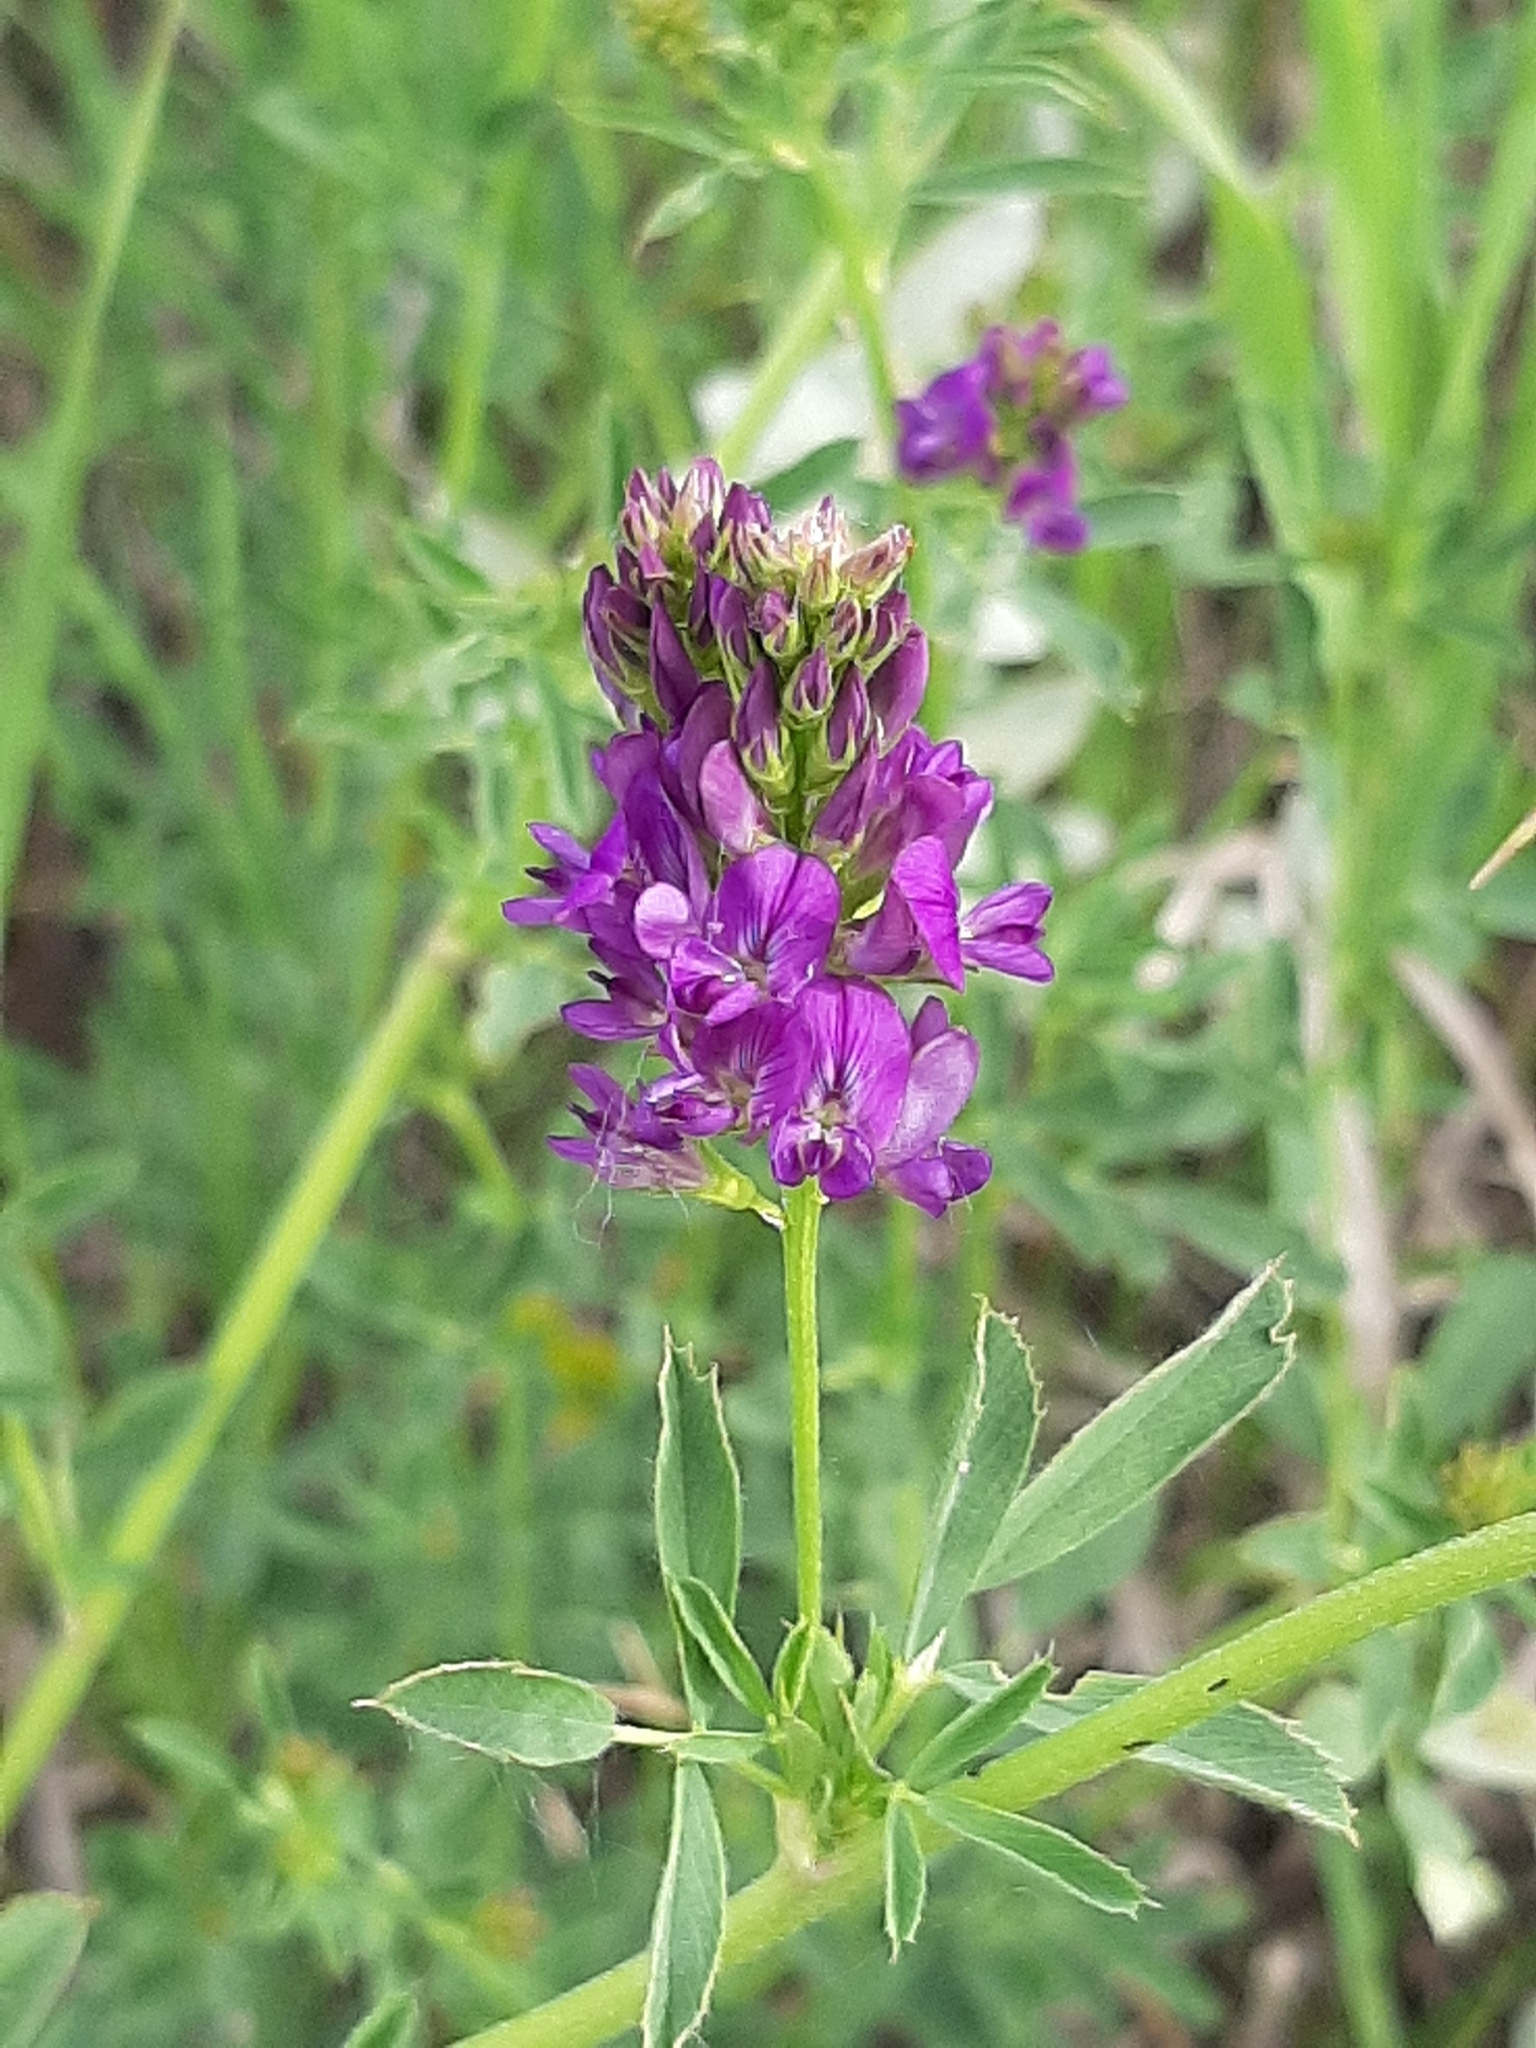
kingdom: Plantae
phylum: Tracheophyta
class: Magnoliopsida
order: Fabales
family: Fabaceae
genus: Medicago
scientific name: Medicago sativa
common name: Alfalfa
